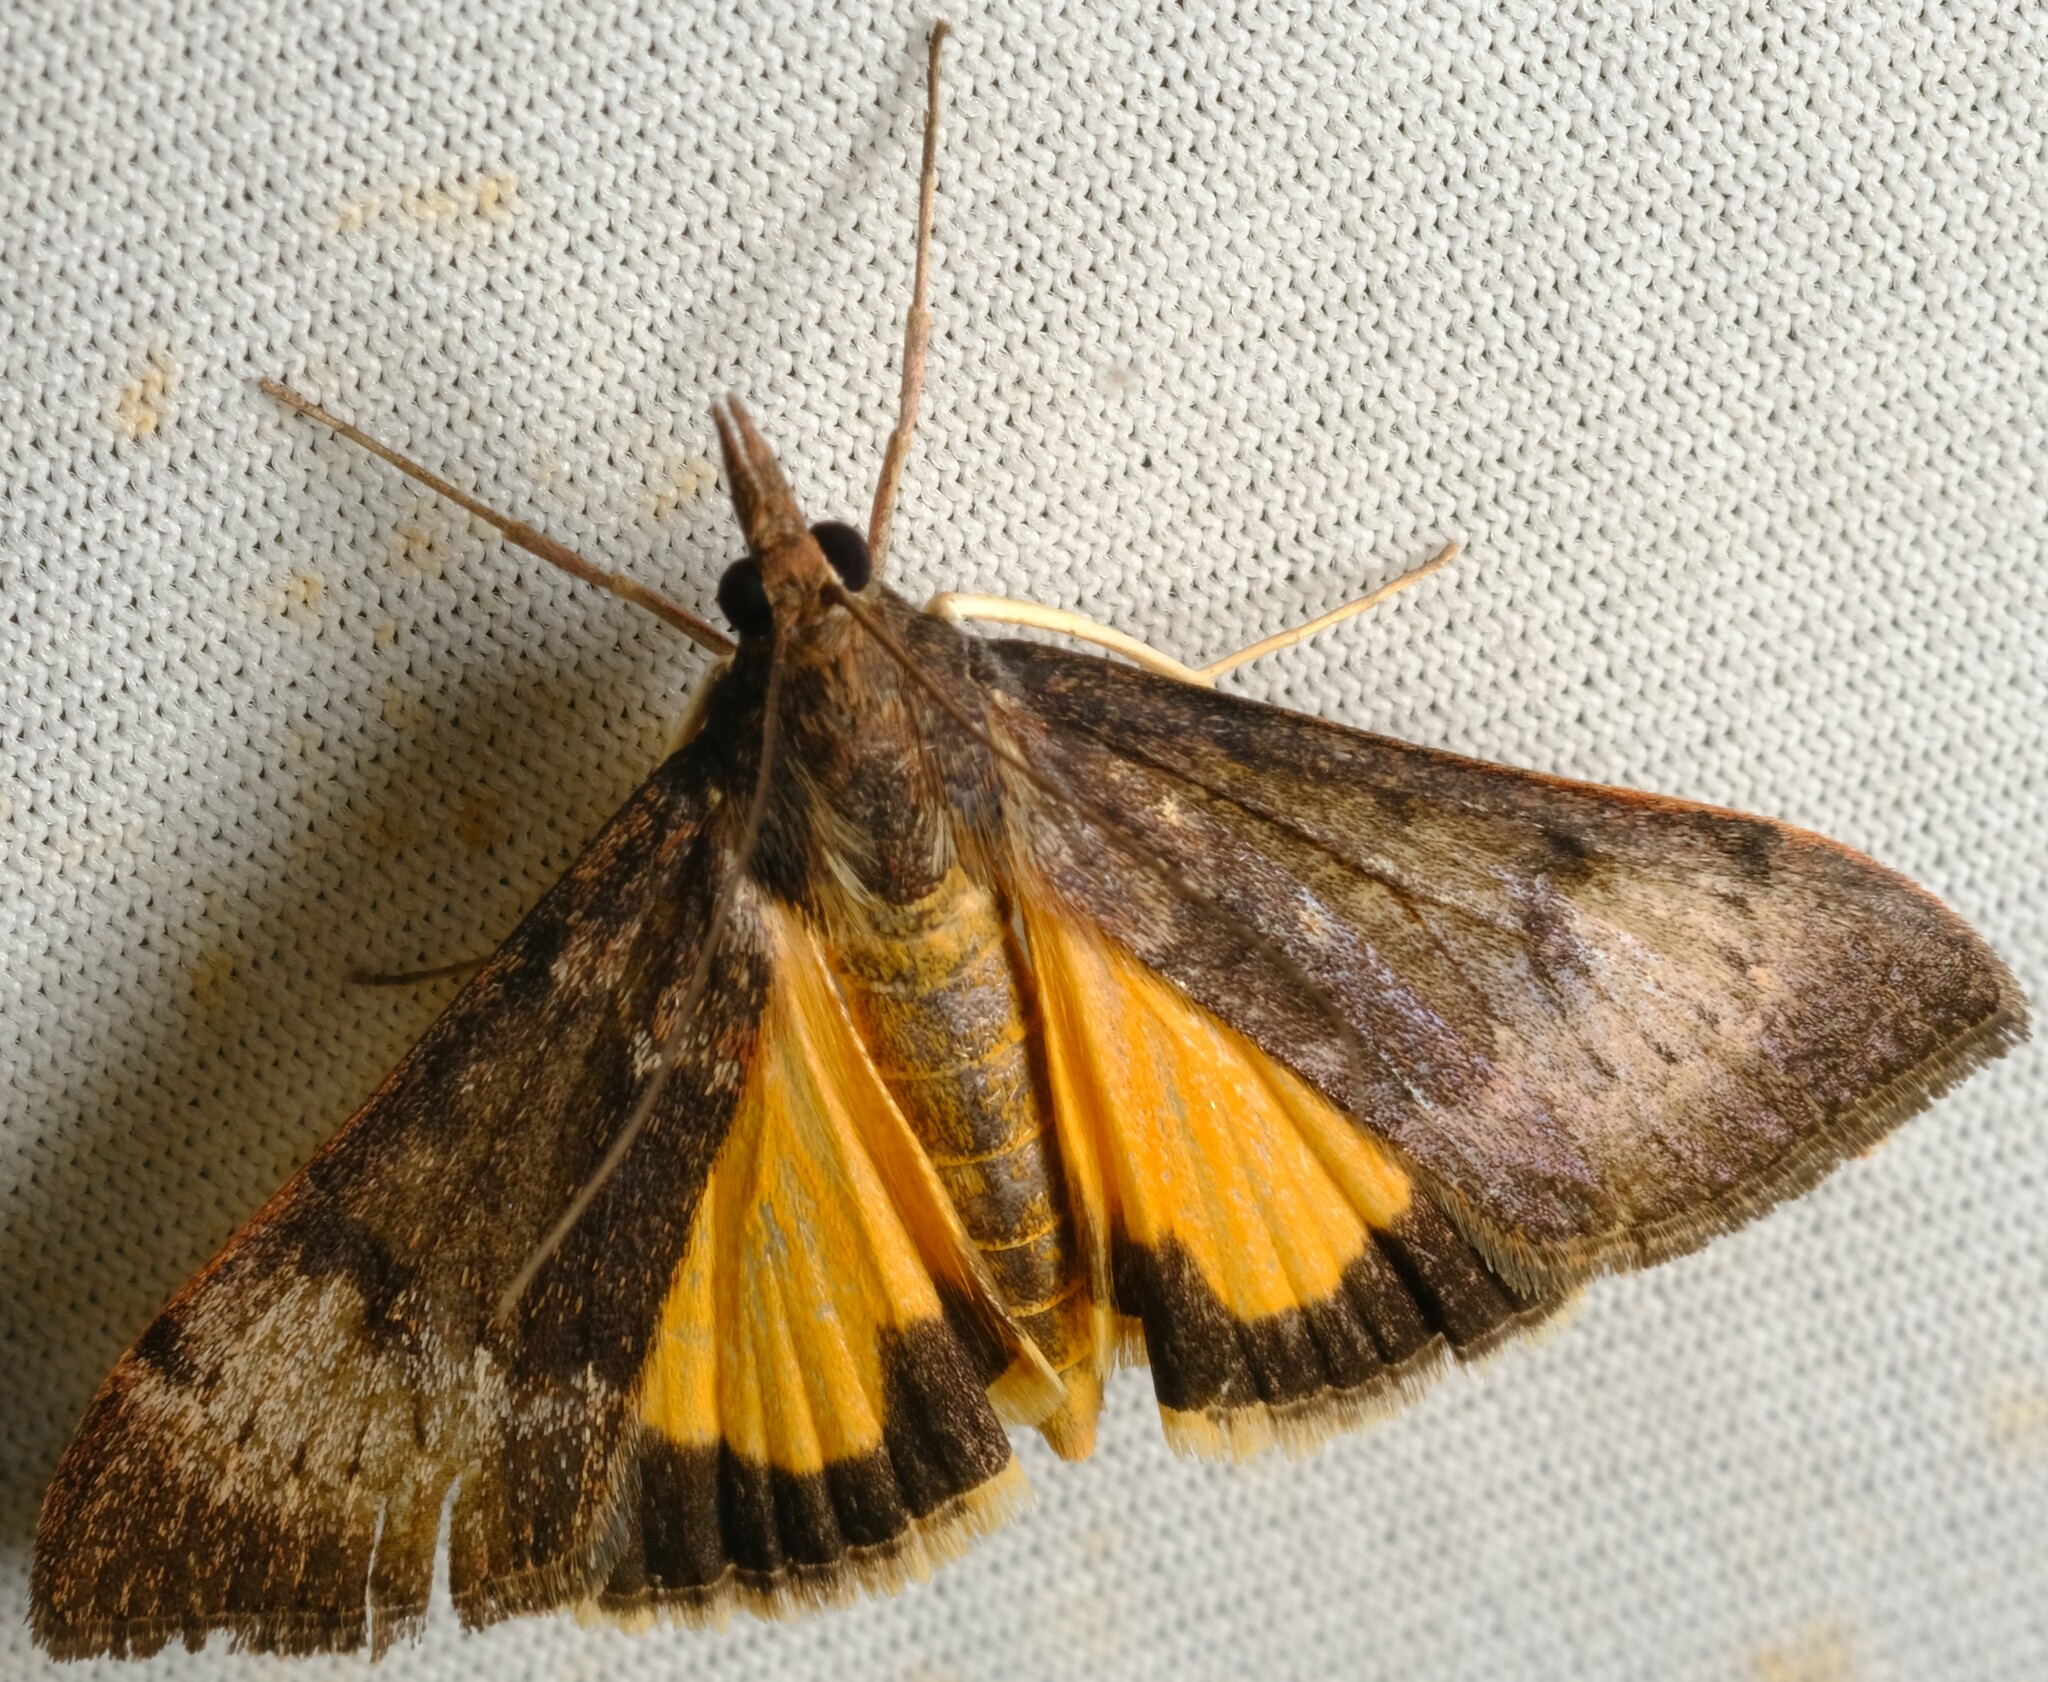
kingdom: Animalia
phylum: Arthropoda
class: Insecta
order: Lepidoptera
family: Crambidae
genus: Uresiphita
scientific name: Uresiphita ornithopteralis
